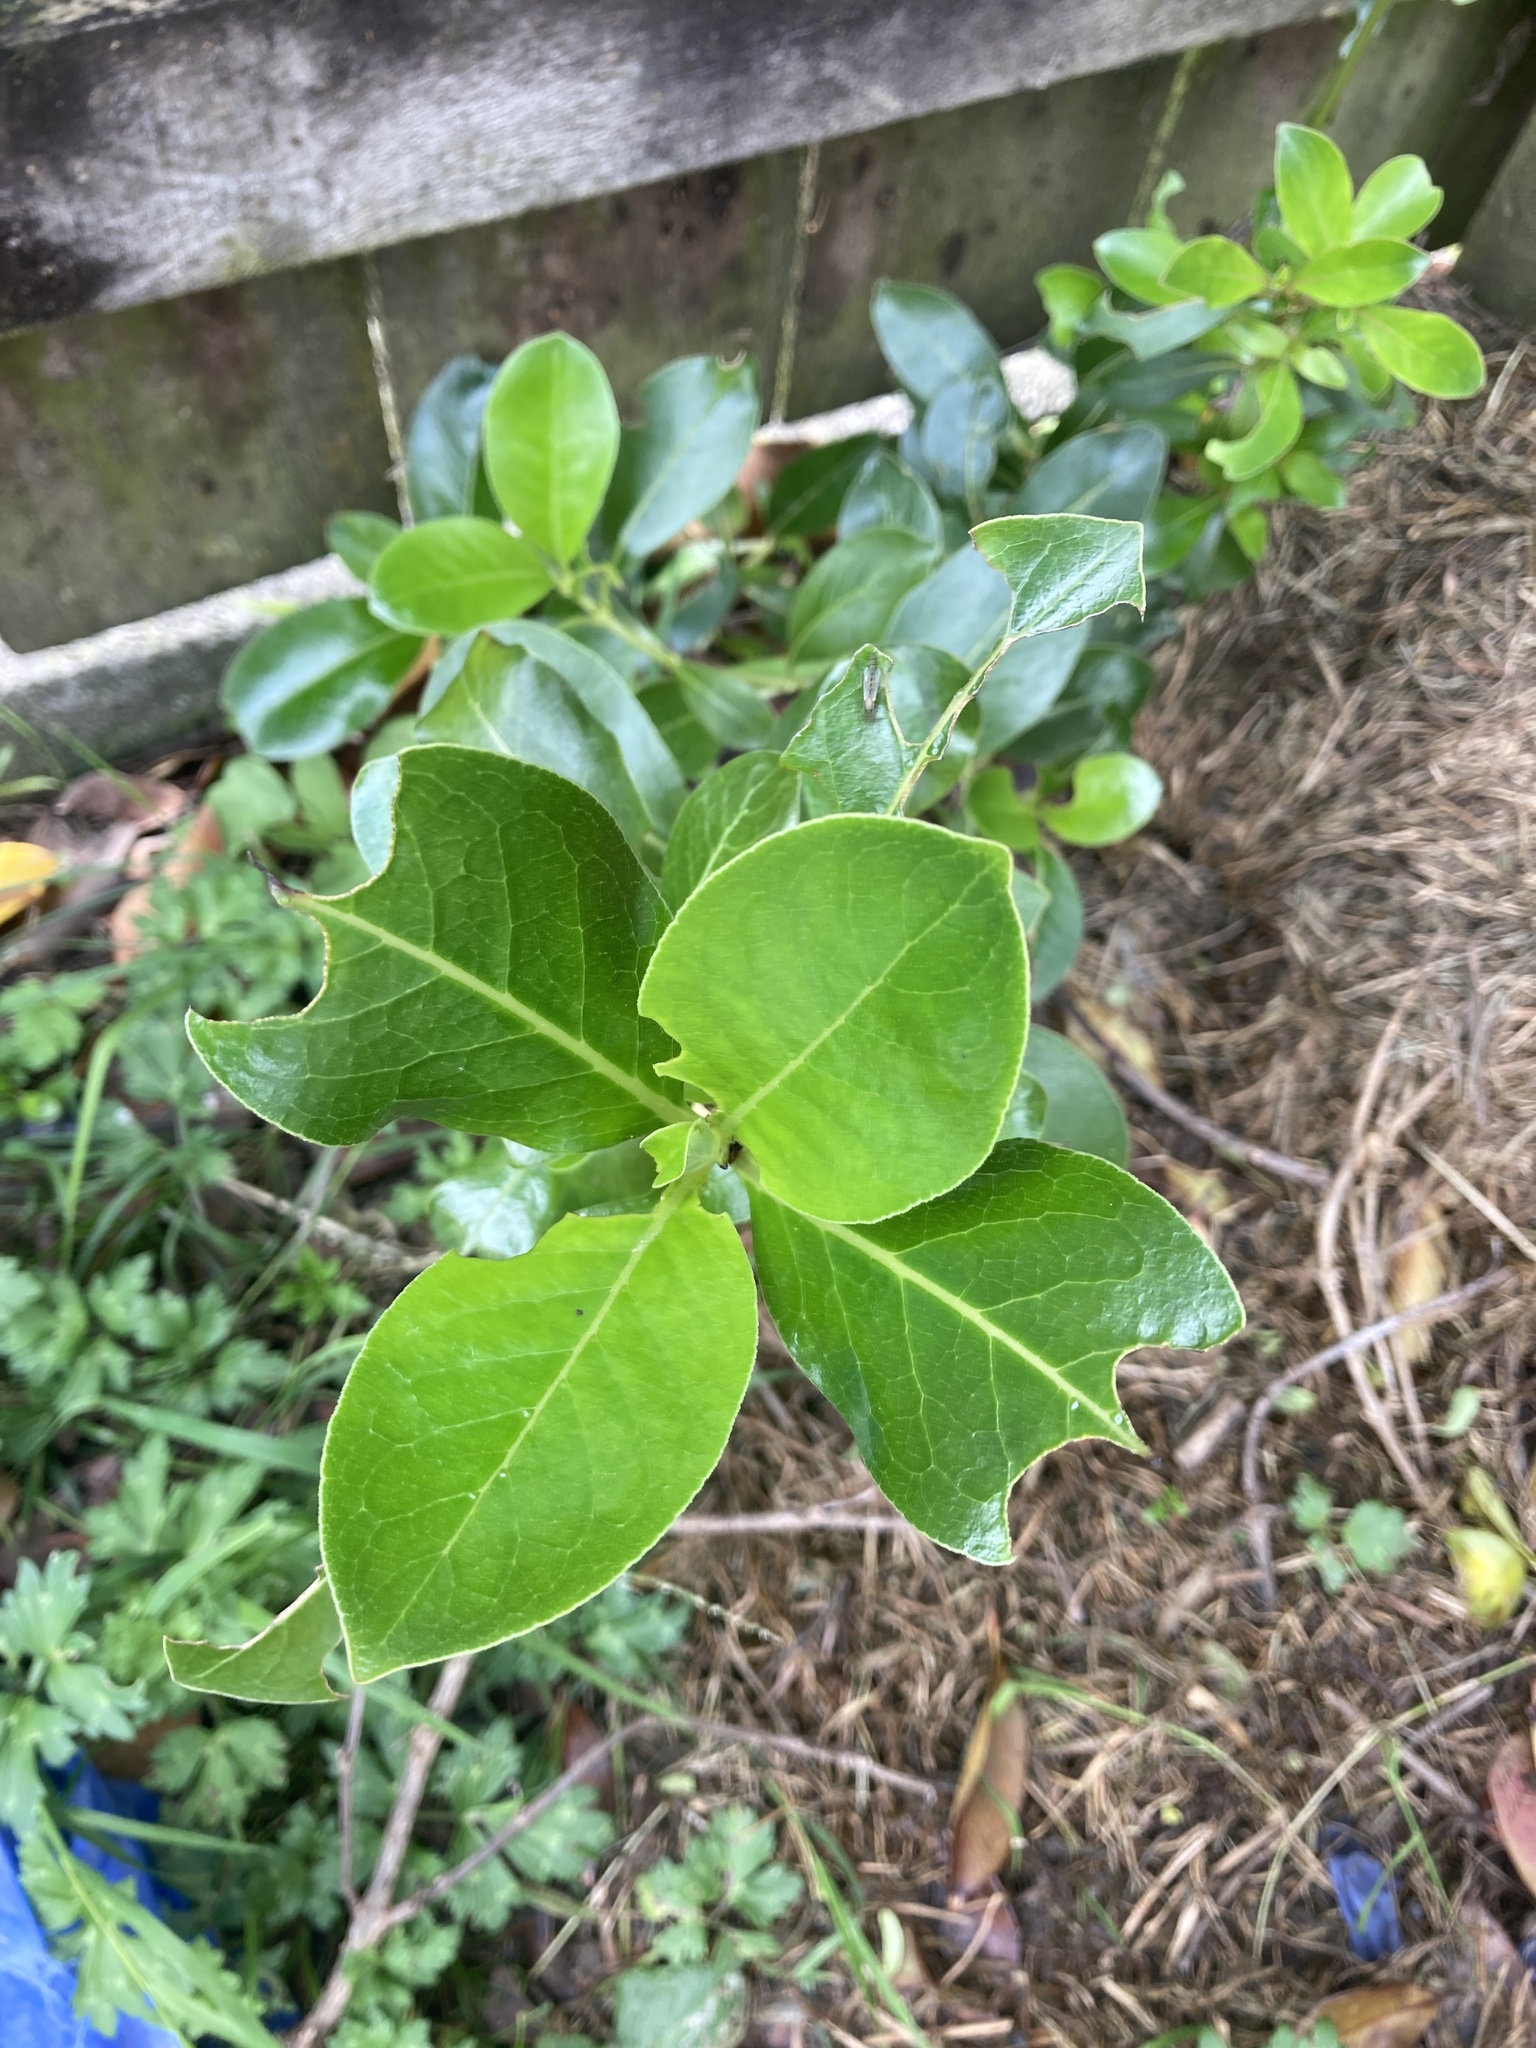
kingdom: Plantae
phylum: Tracheophyta
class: Magnoliopsida
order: Gentianales
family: Rubiaceae
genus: Coprosma
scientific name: Coprosma robusta
